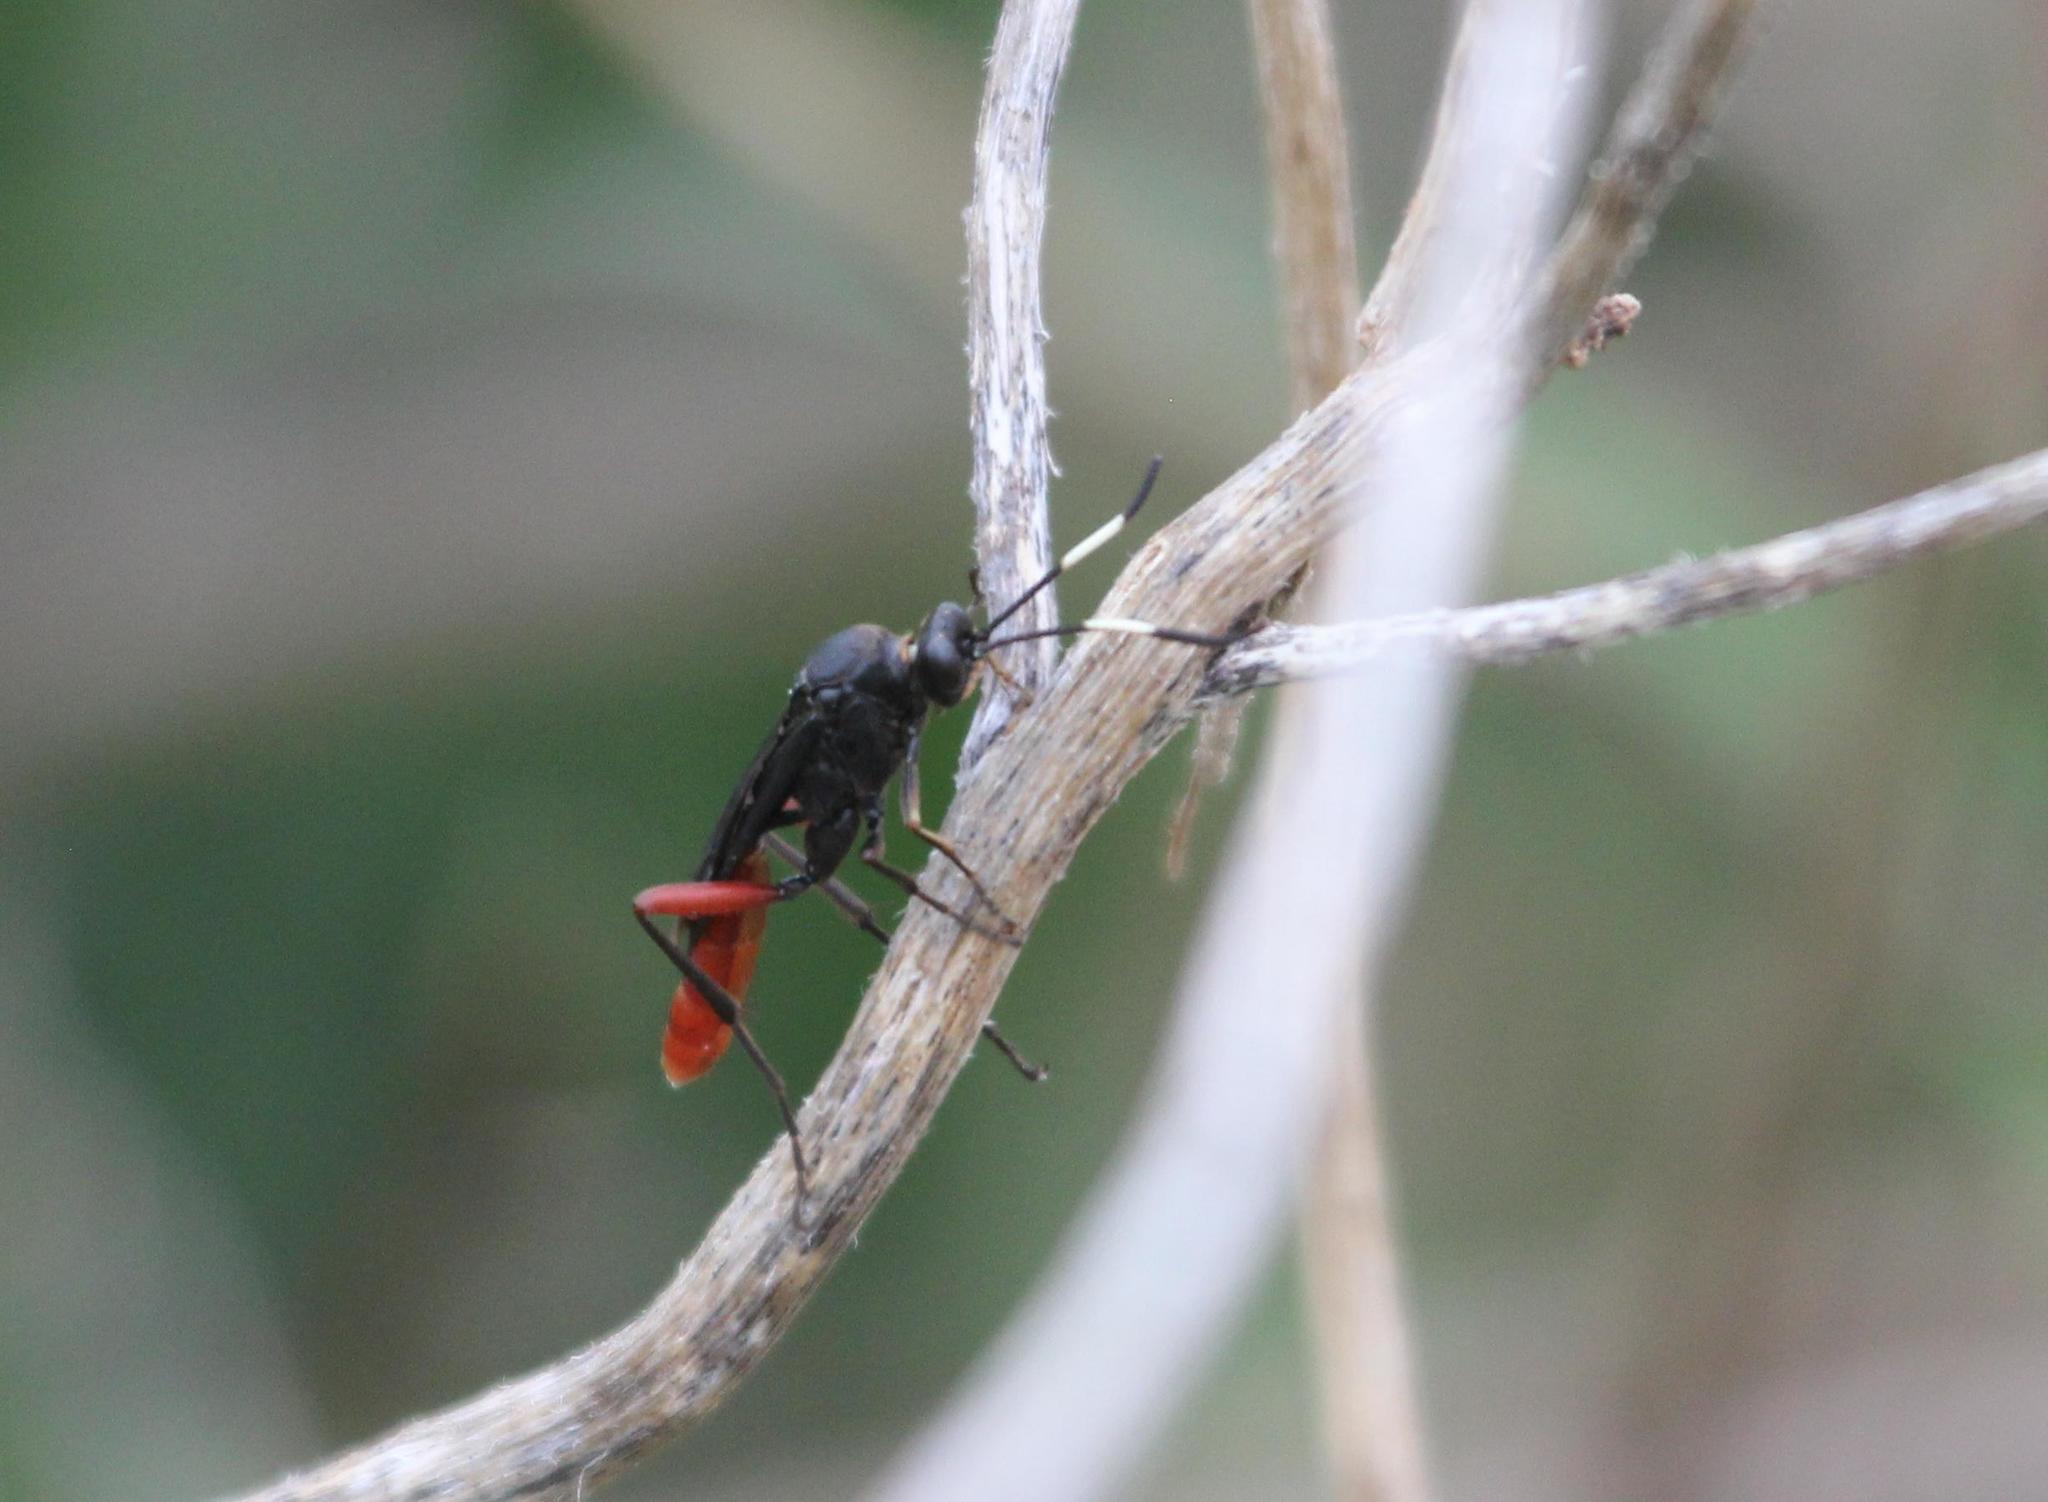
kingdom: Animalia
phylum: Arthropoda
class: Insecta
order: Hymenoptera
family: Ichneumonidae
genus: Limonethe
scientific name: Limonethe maurator
